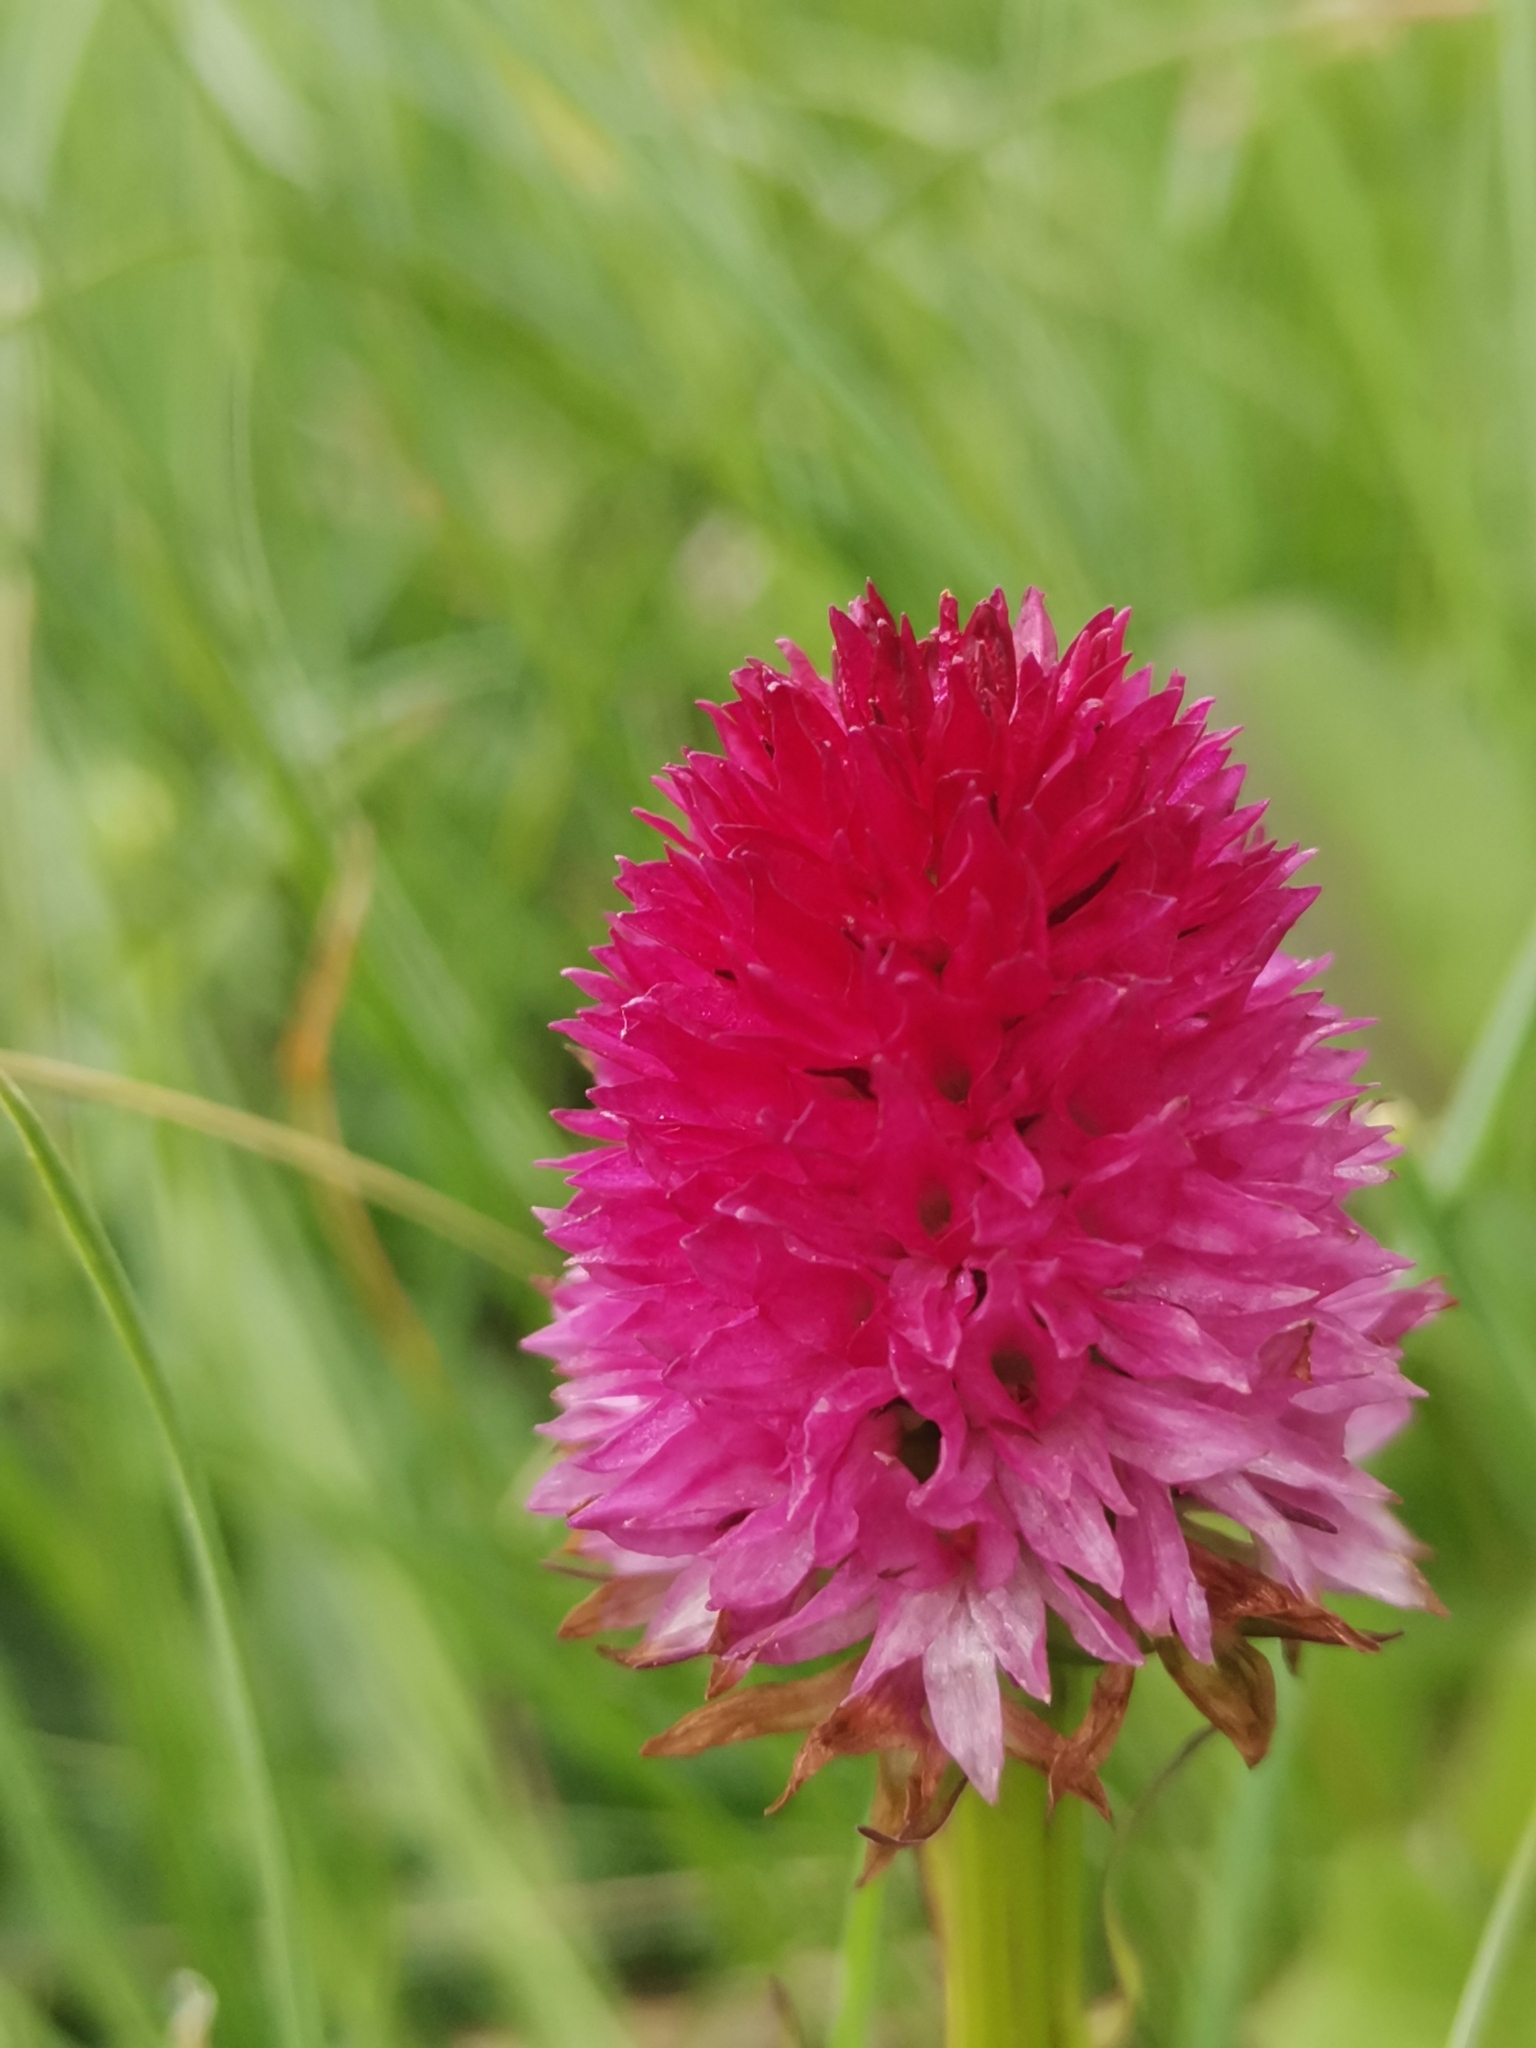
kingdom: Plantae
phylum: Tracheophyta
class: Liliopsida
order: Asparagales
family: Orchidaceae
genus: Gymnadenia
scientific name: Gymnadenia miniata
